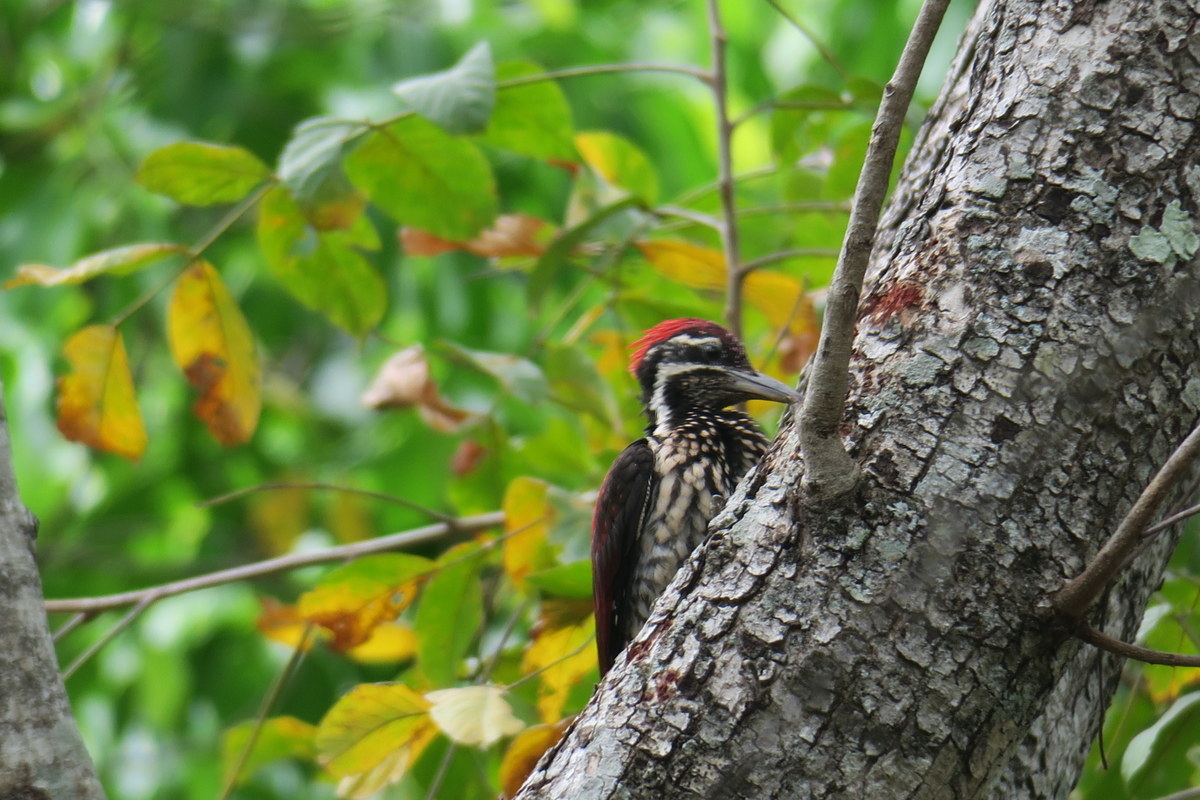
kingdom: Animalia
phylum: Chordata
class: Aves
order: Piciformes
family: Picidae
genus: Dinopium
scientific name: Dinopium psarodes
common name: Red-backed flameback
